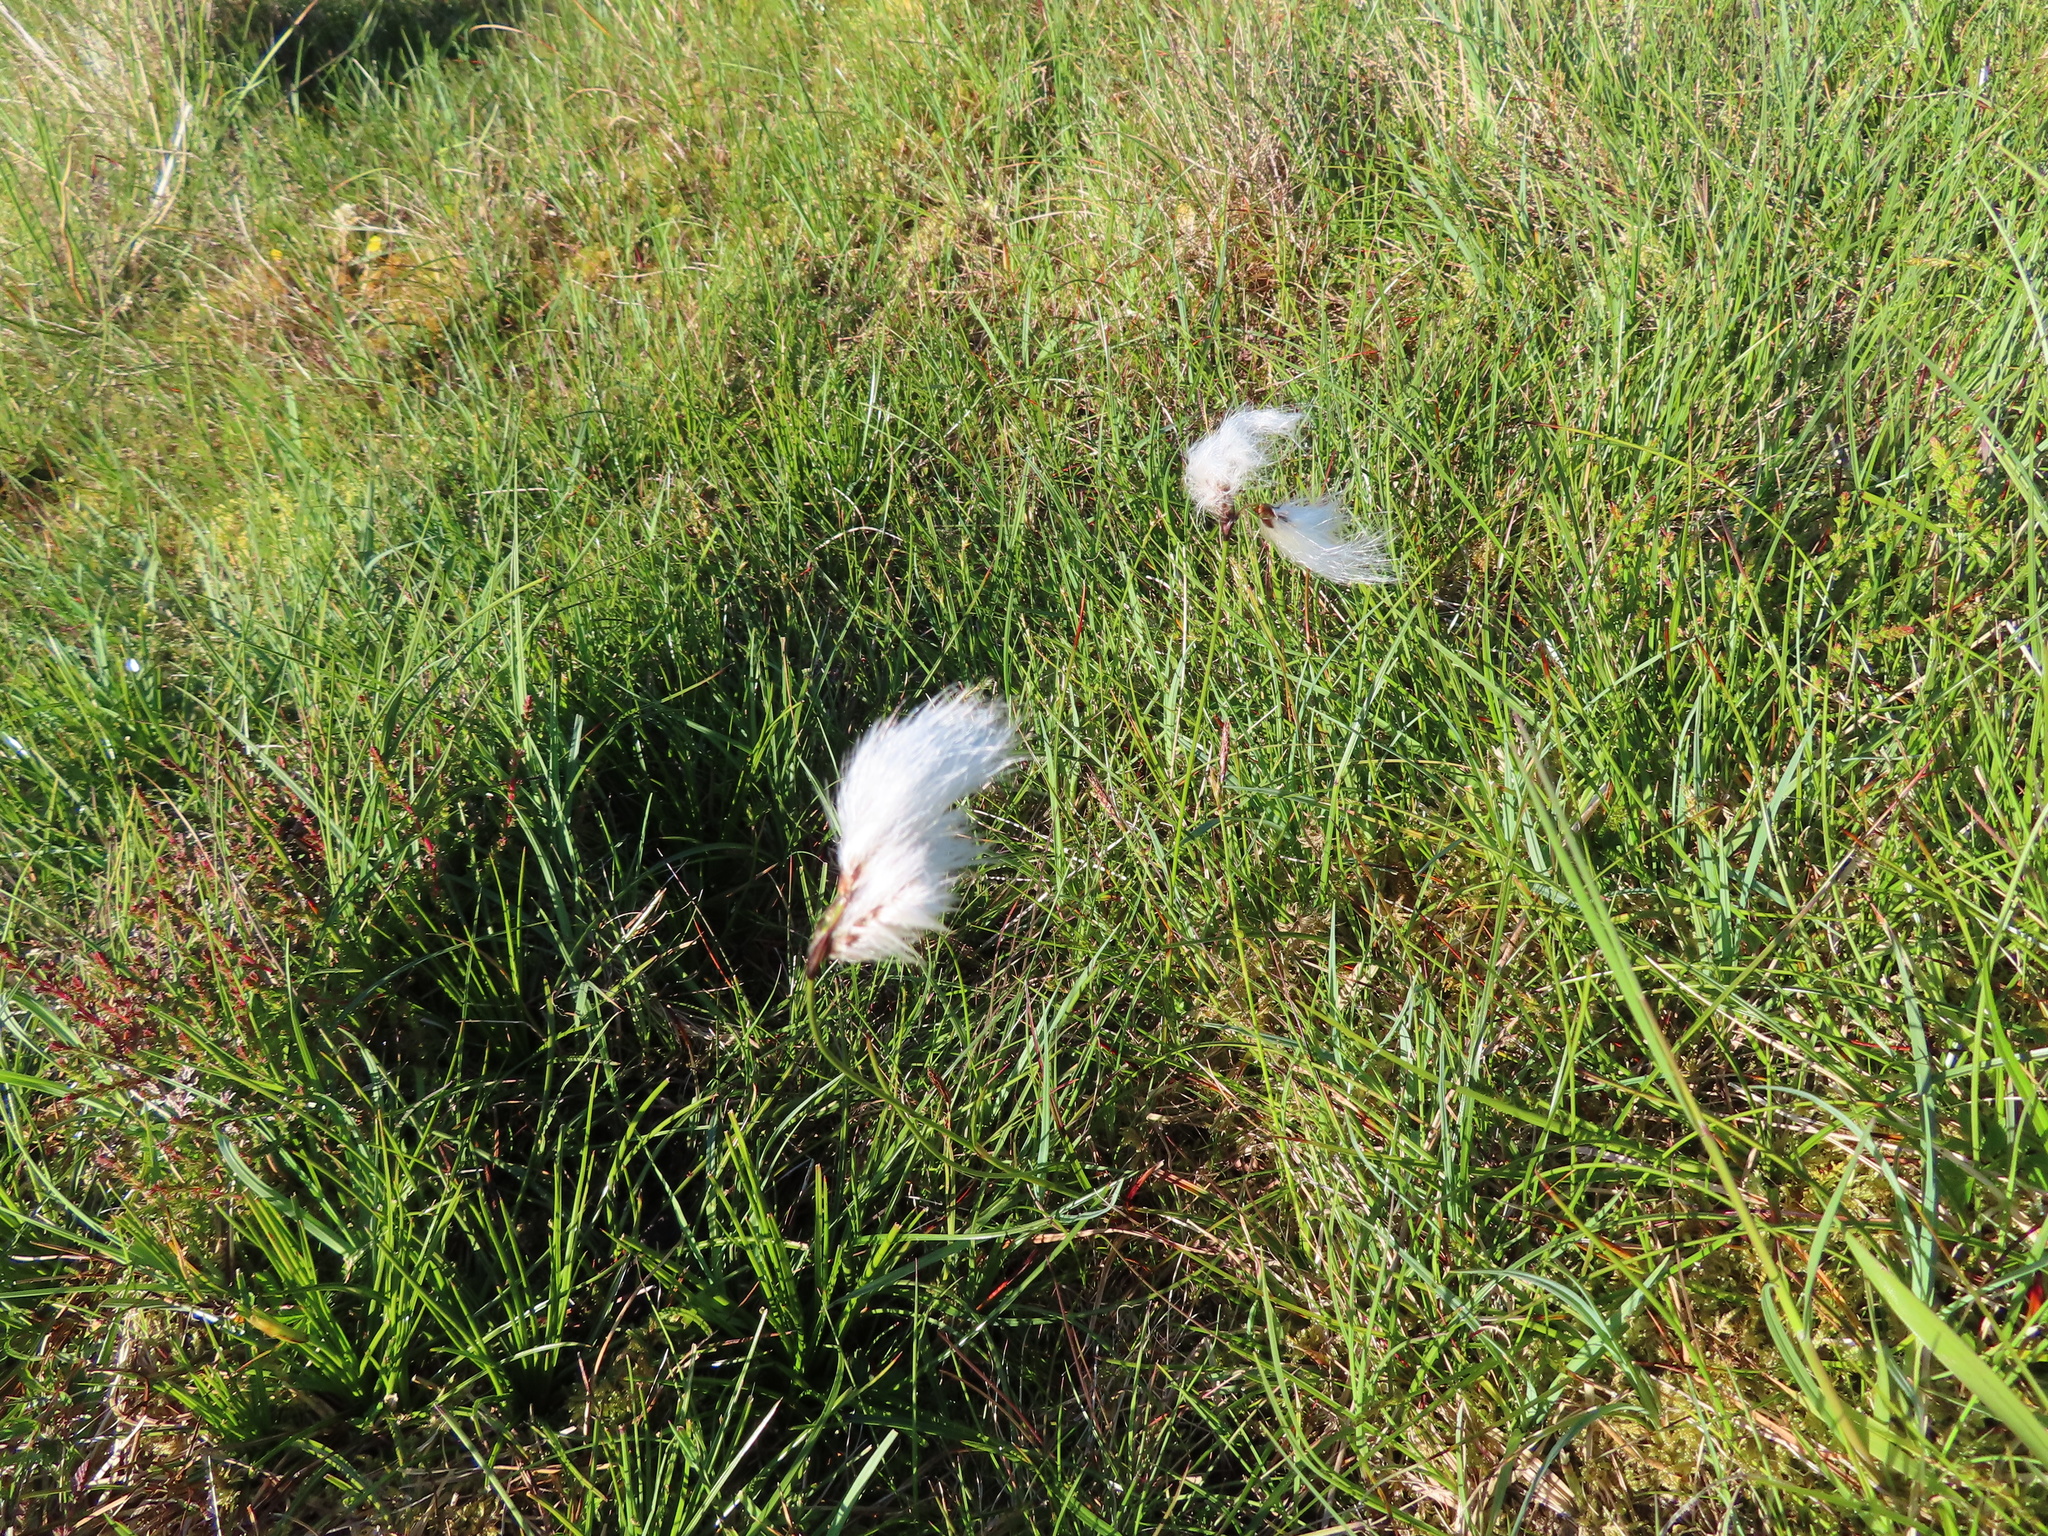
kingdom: Plantae
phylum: Tracheophyta
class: Liliopsida
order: Poales
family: Cyperaceae
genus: Eriophorum
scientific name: Eriophorum angustifolium
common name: Common cottongrass
